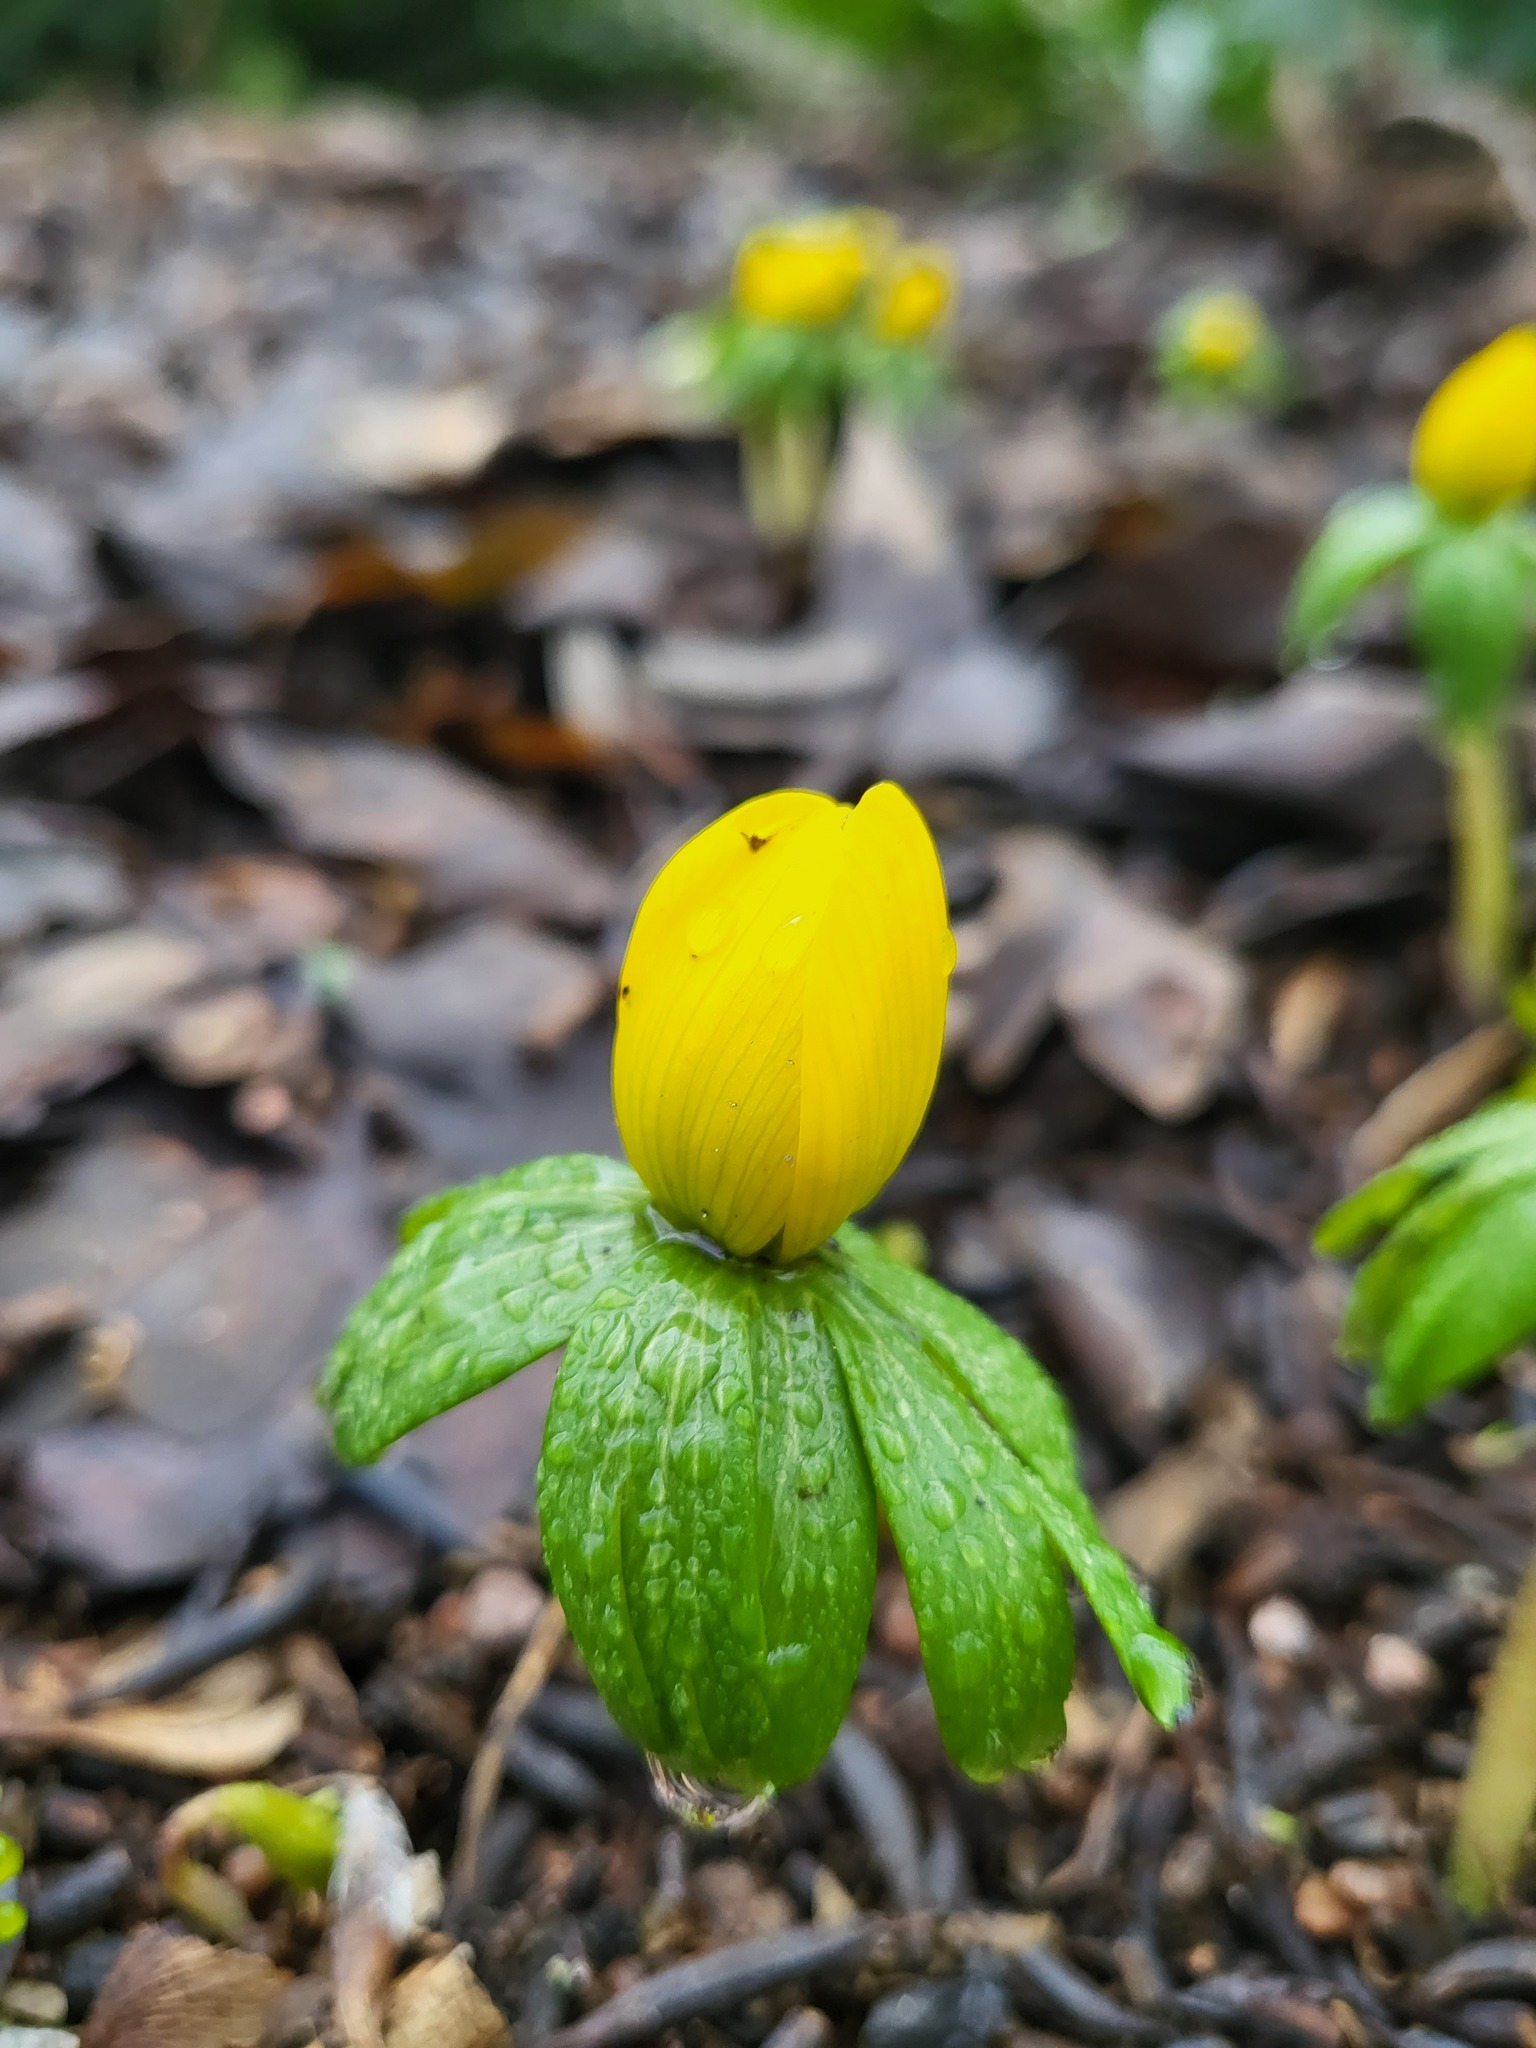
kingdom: Plantae
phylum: Tracheophyta
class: Magnoliopsida
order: Ranunculales
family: Ranunculaceae
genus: Eranthis
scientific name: Eranthis hyemalis
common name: Winter aconite
